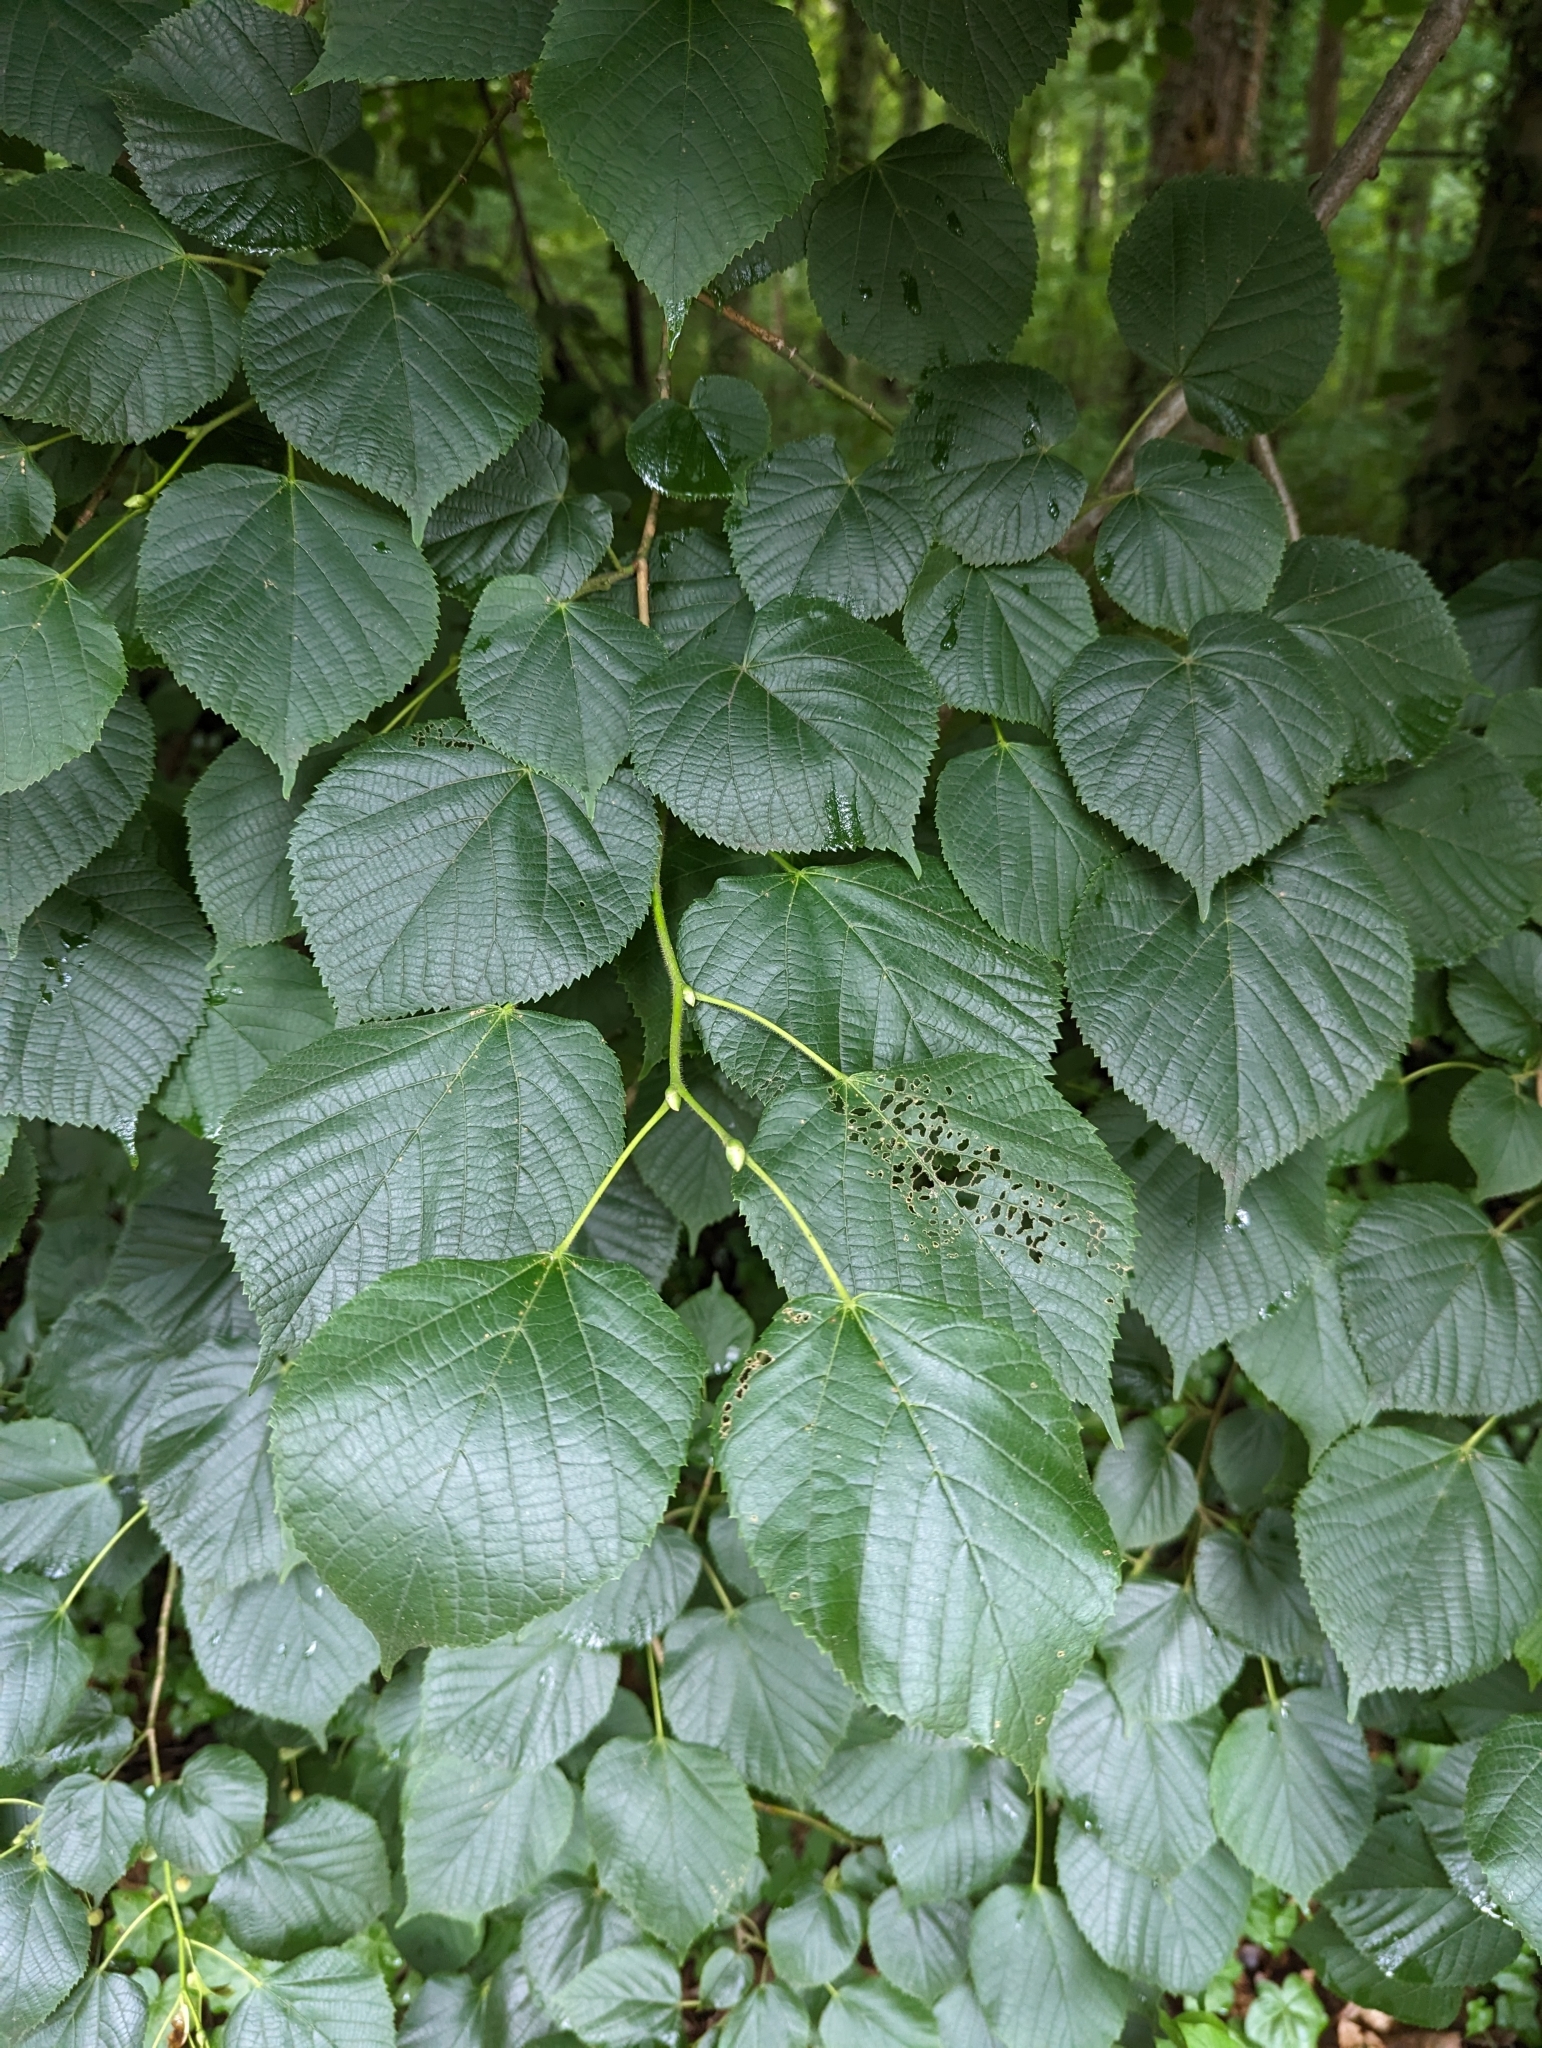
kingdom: Plantae
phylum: Tracheophyta
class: Magnoliopsida
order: Malvales
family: Malvaceae
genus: Tilia
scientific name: Tilia americana
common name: Basswood
